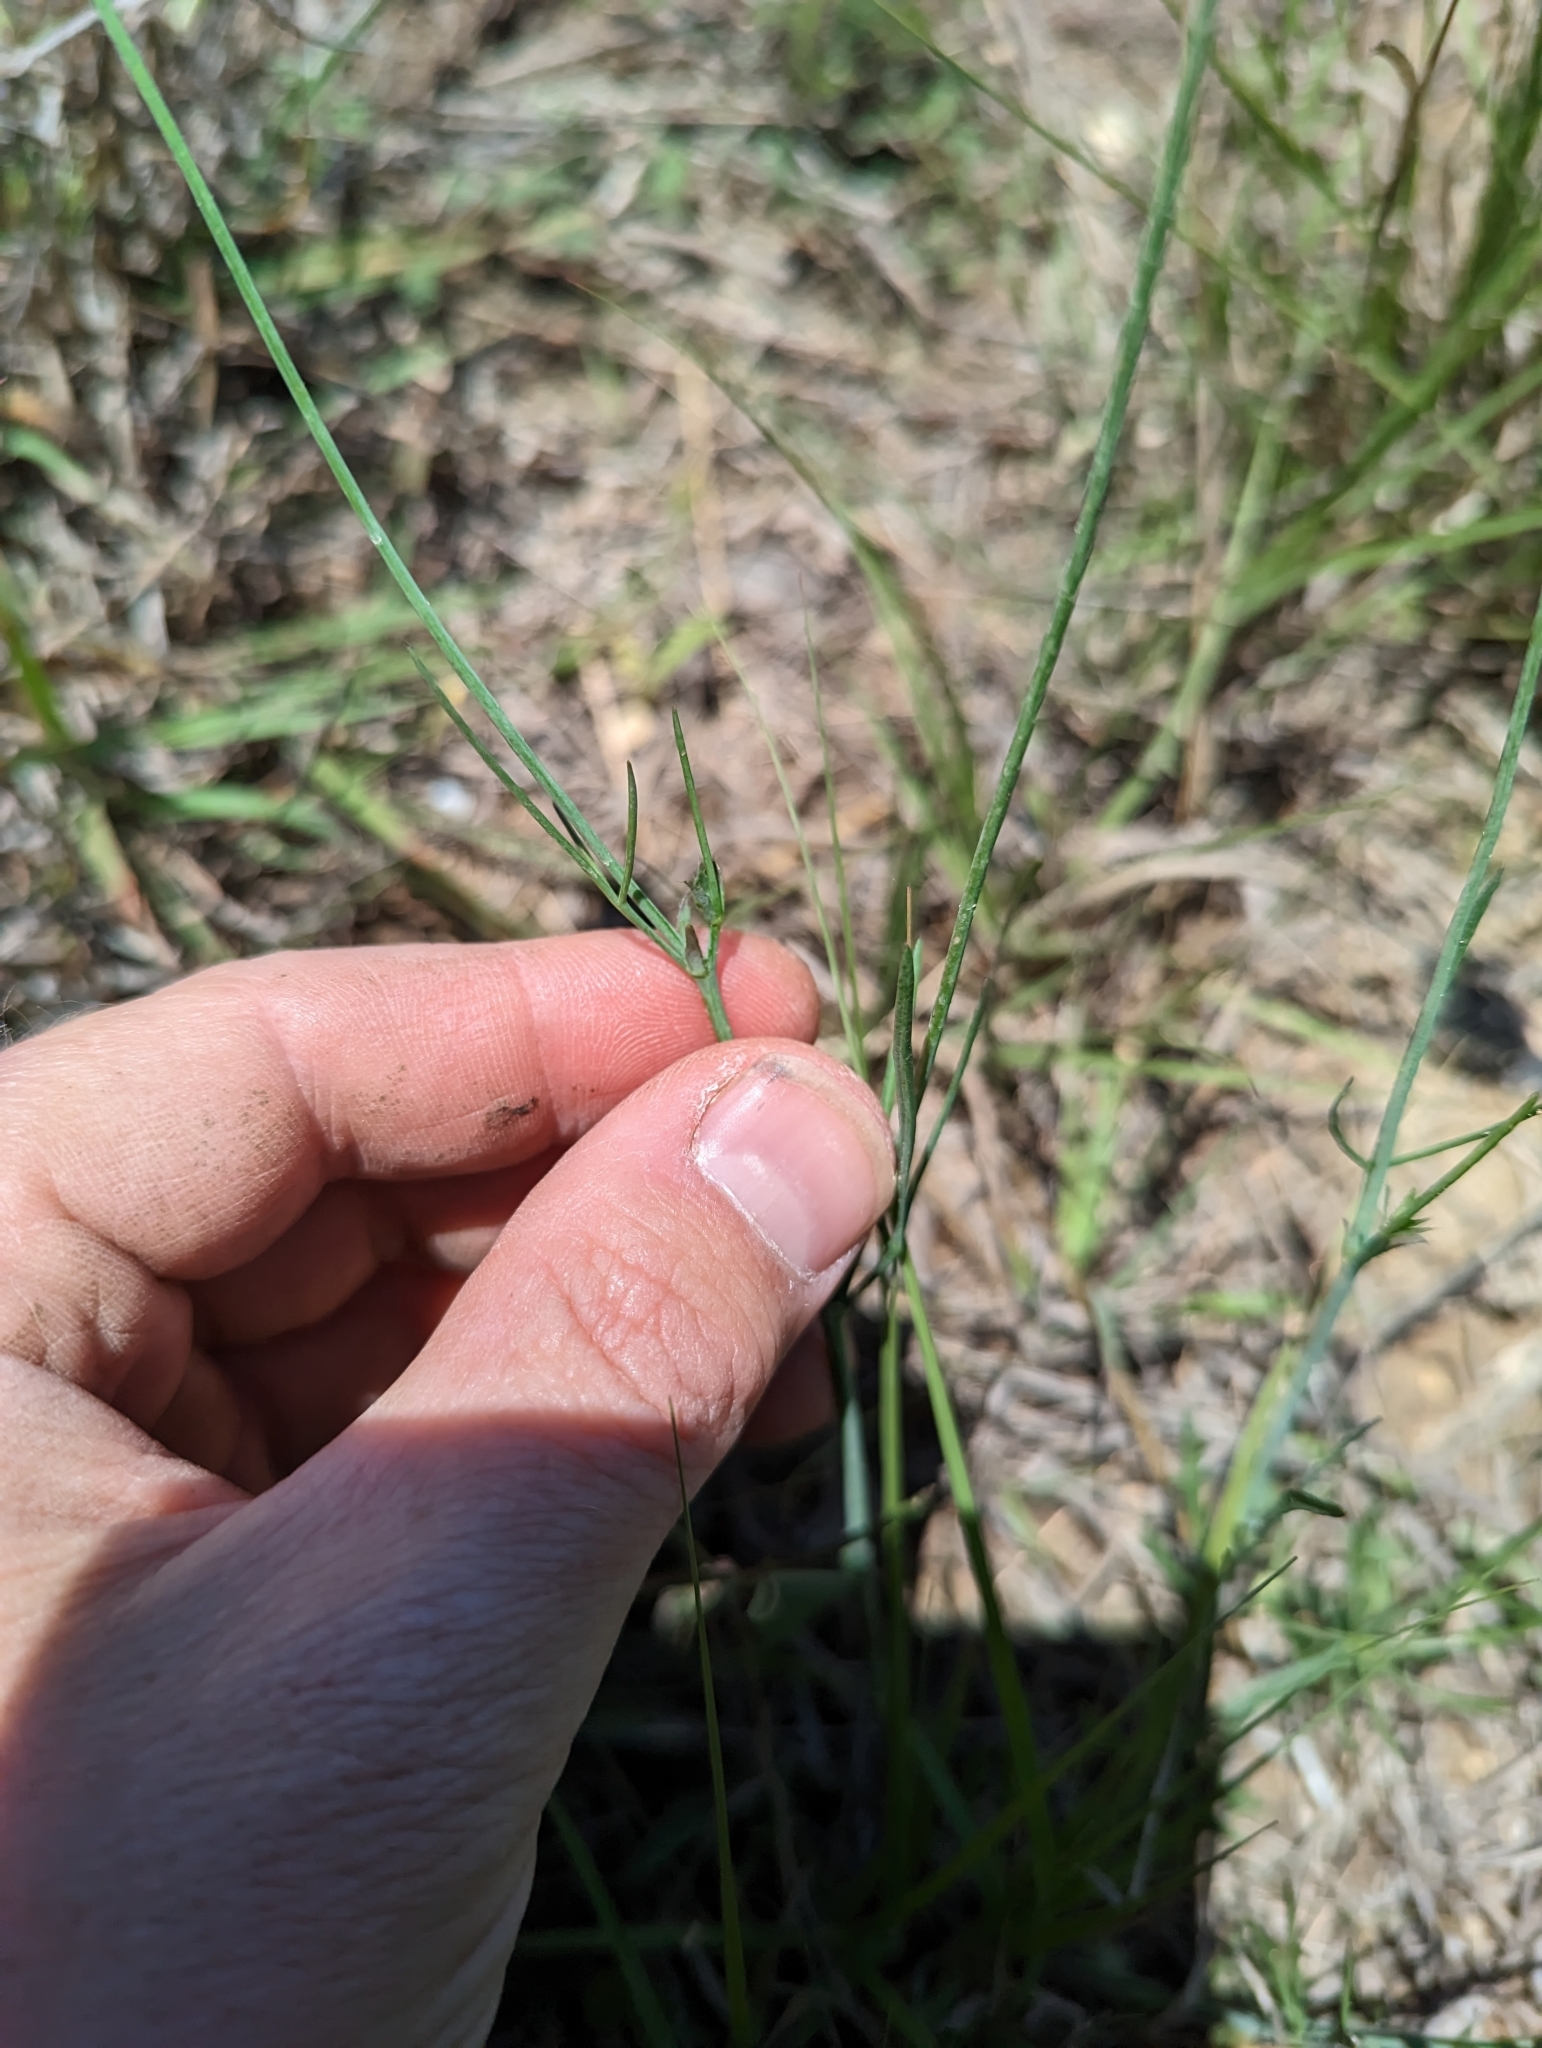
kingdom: Plantae
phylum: Tracheophyta
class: Magnoliopsida
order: Malvales
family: Malvaceae
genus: Callirhoe
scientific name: Callirhoe pedata
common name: Finger poppy-mallow
